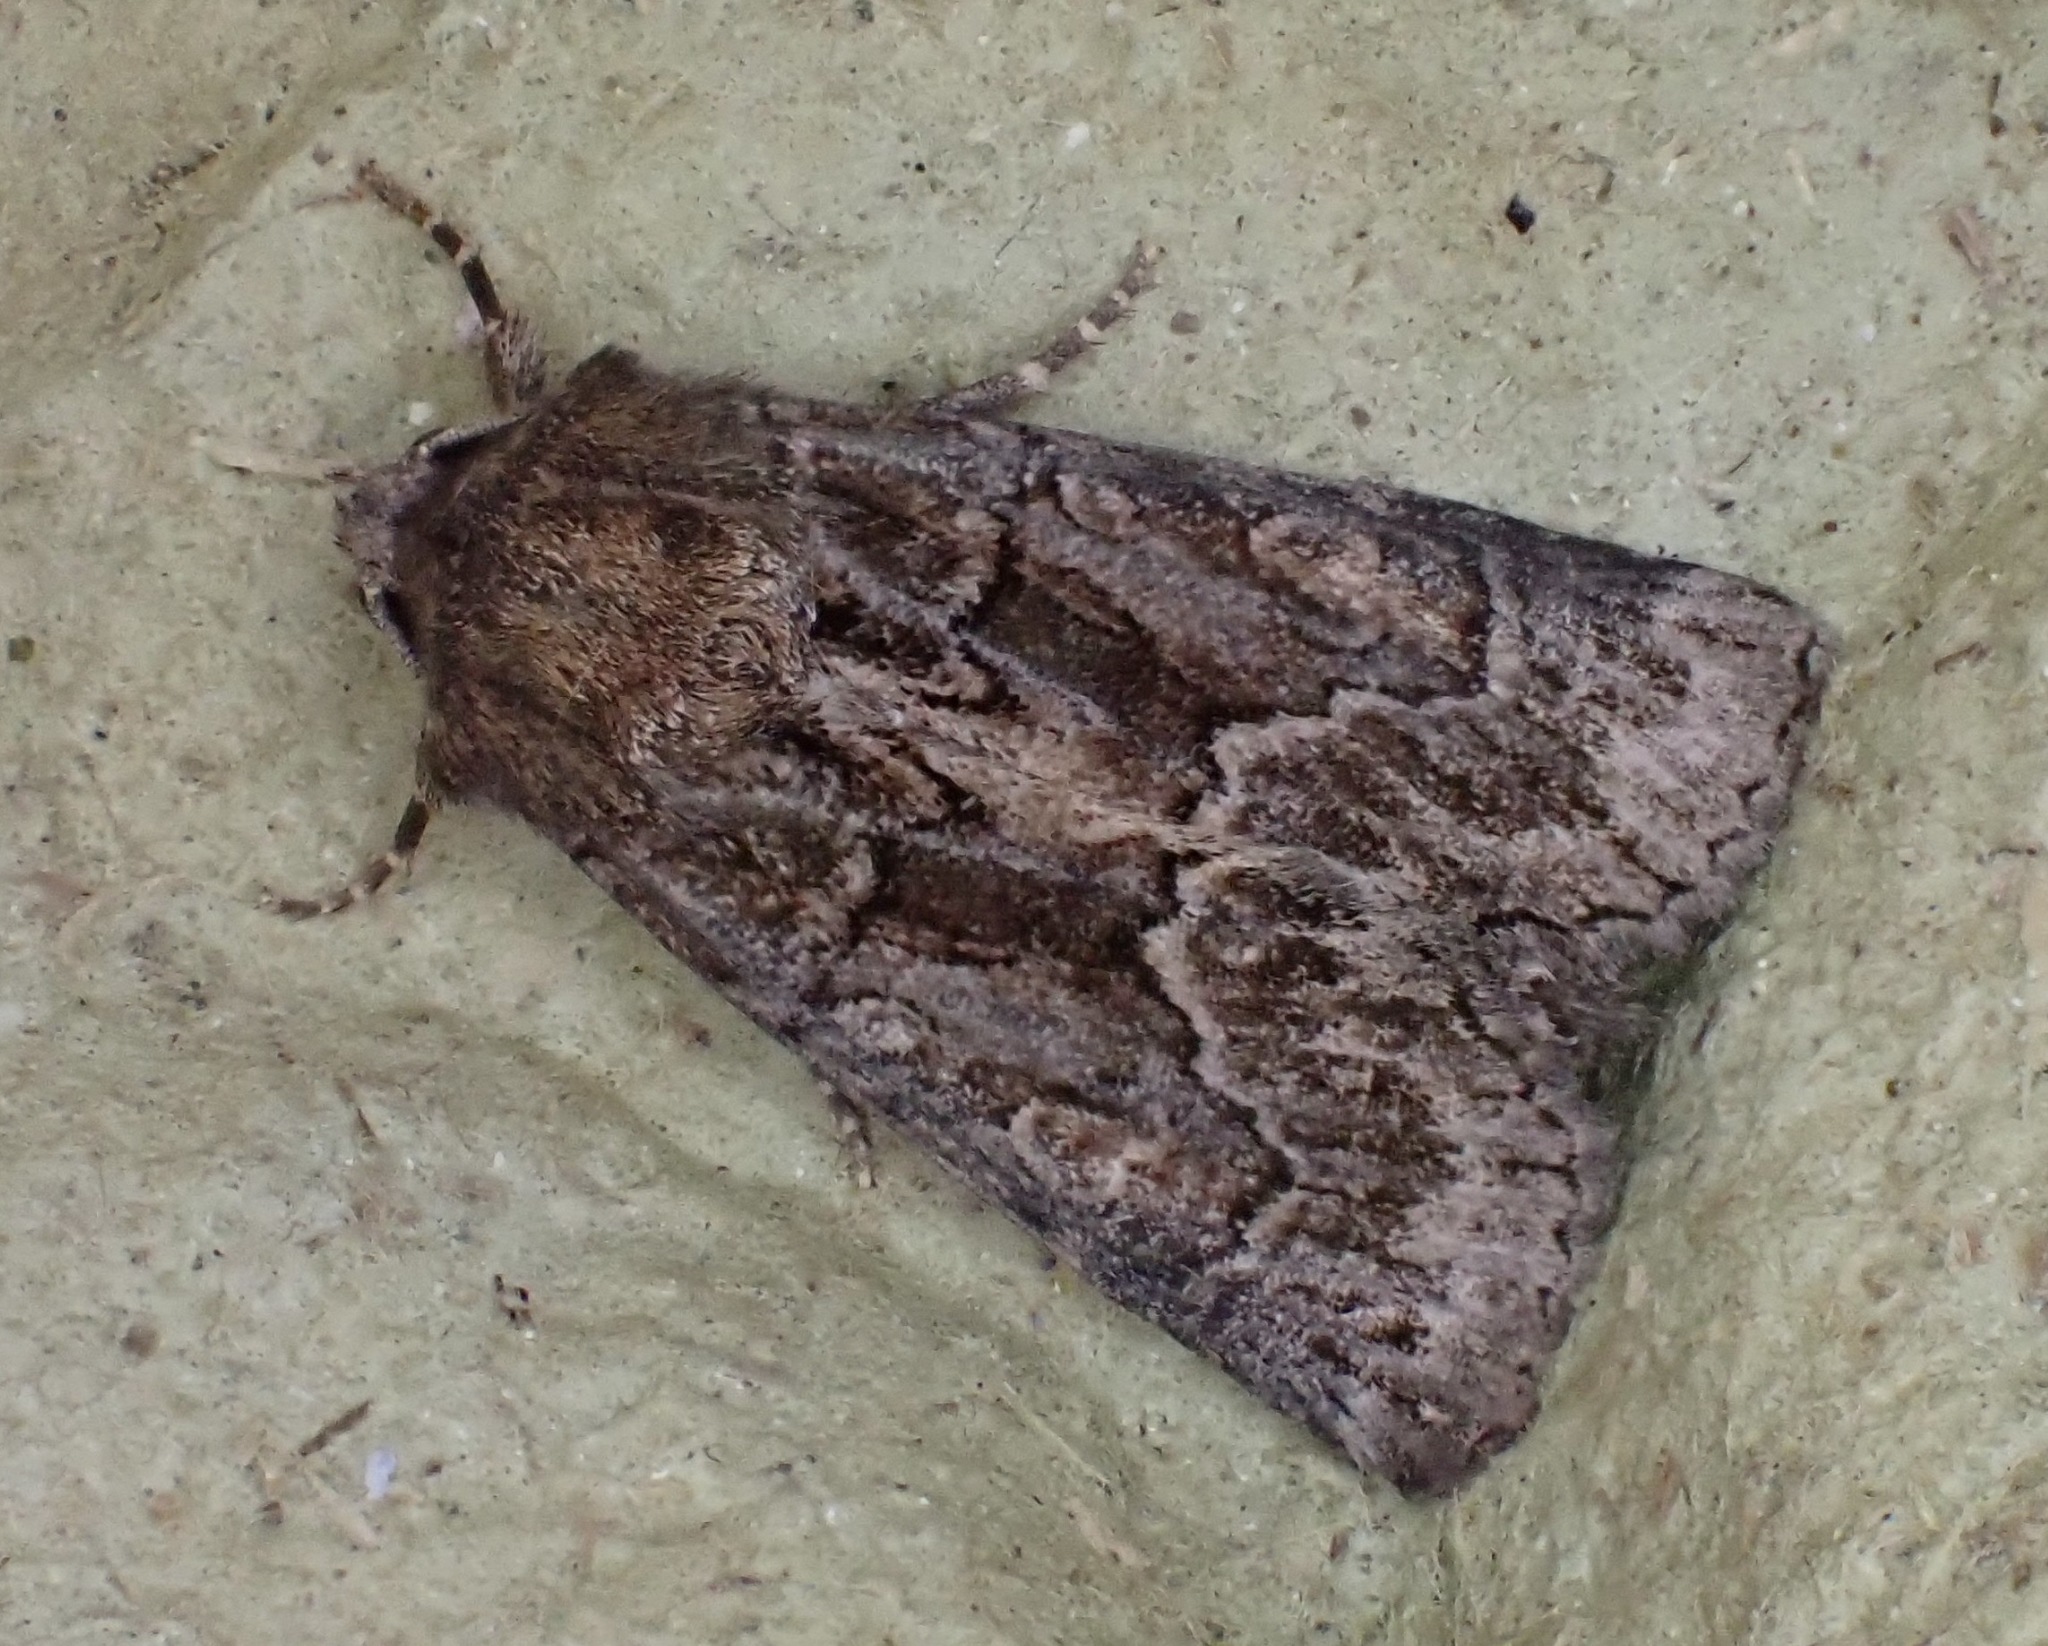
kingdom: Animalia
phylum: Arthropoda
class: Insecta
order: Lepidoptera
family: Noctuidae
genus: Thalpophila
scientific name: Thalpophila matura
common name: Straw underwing
